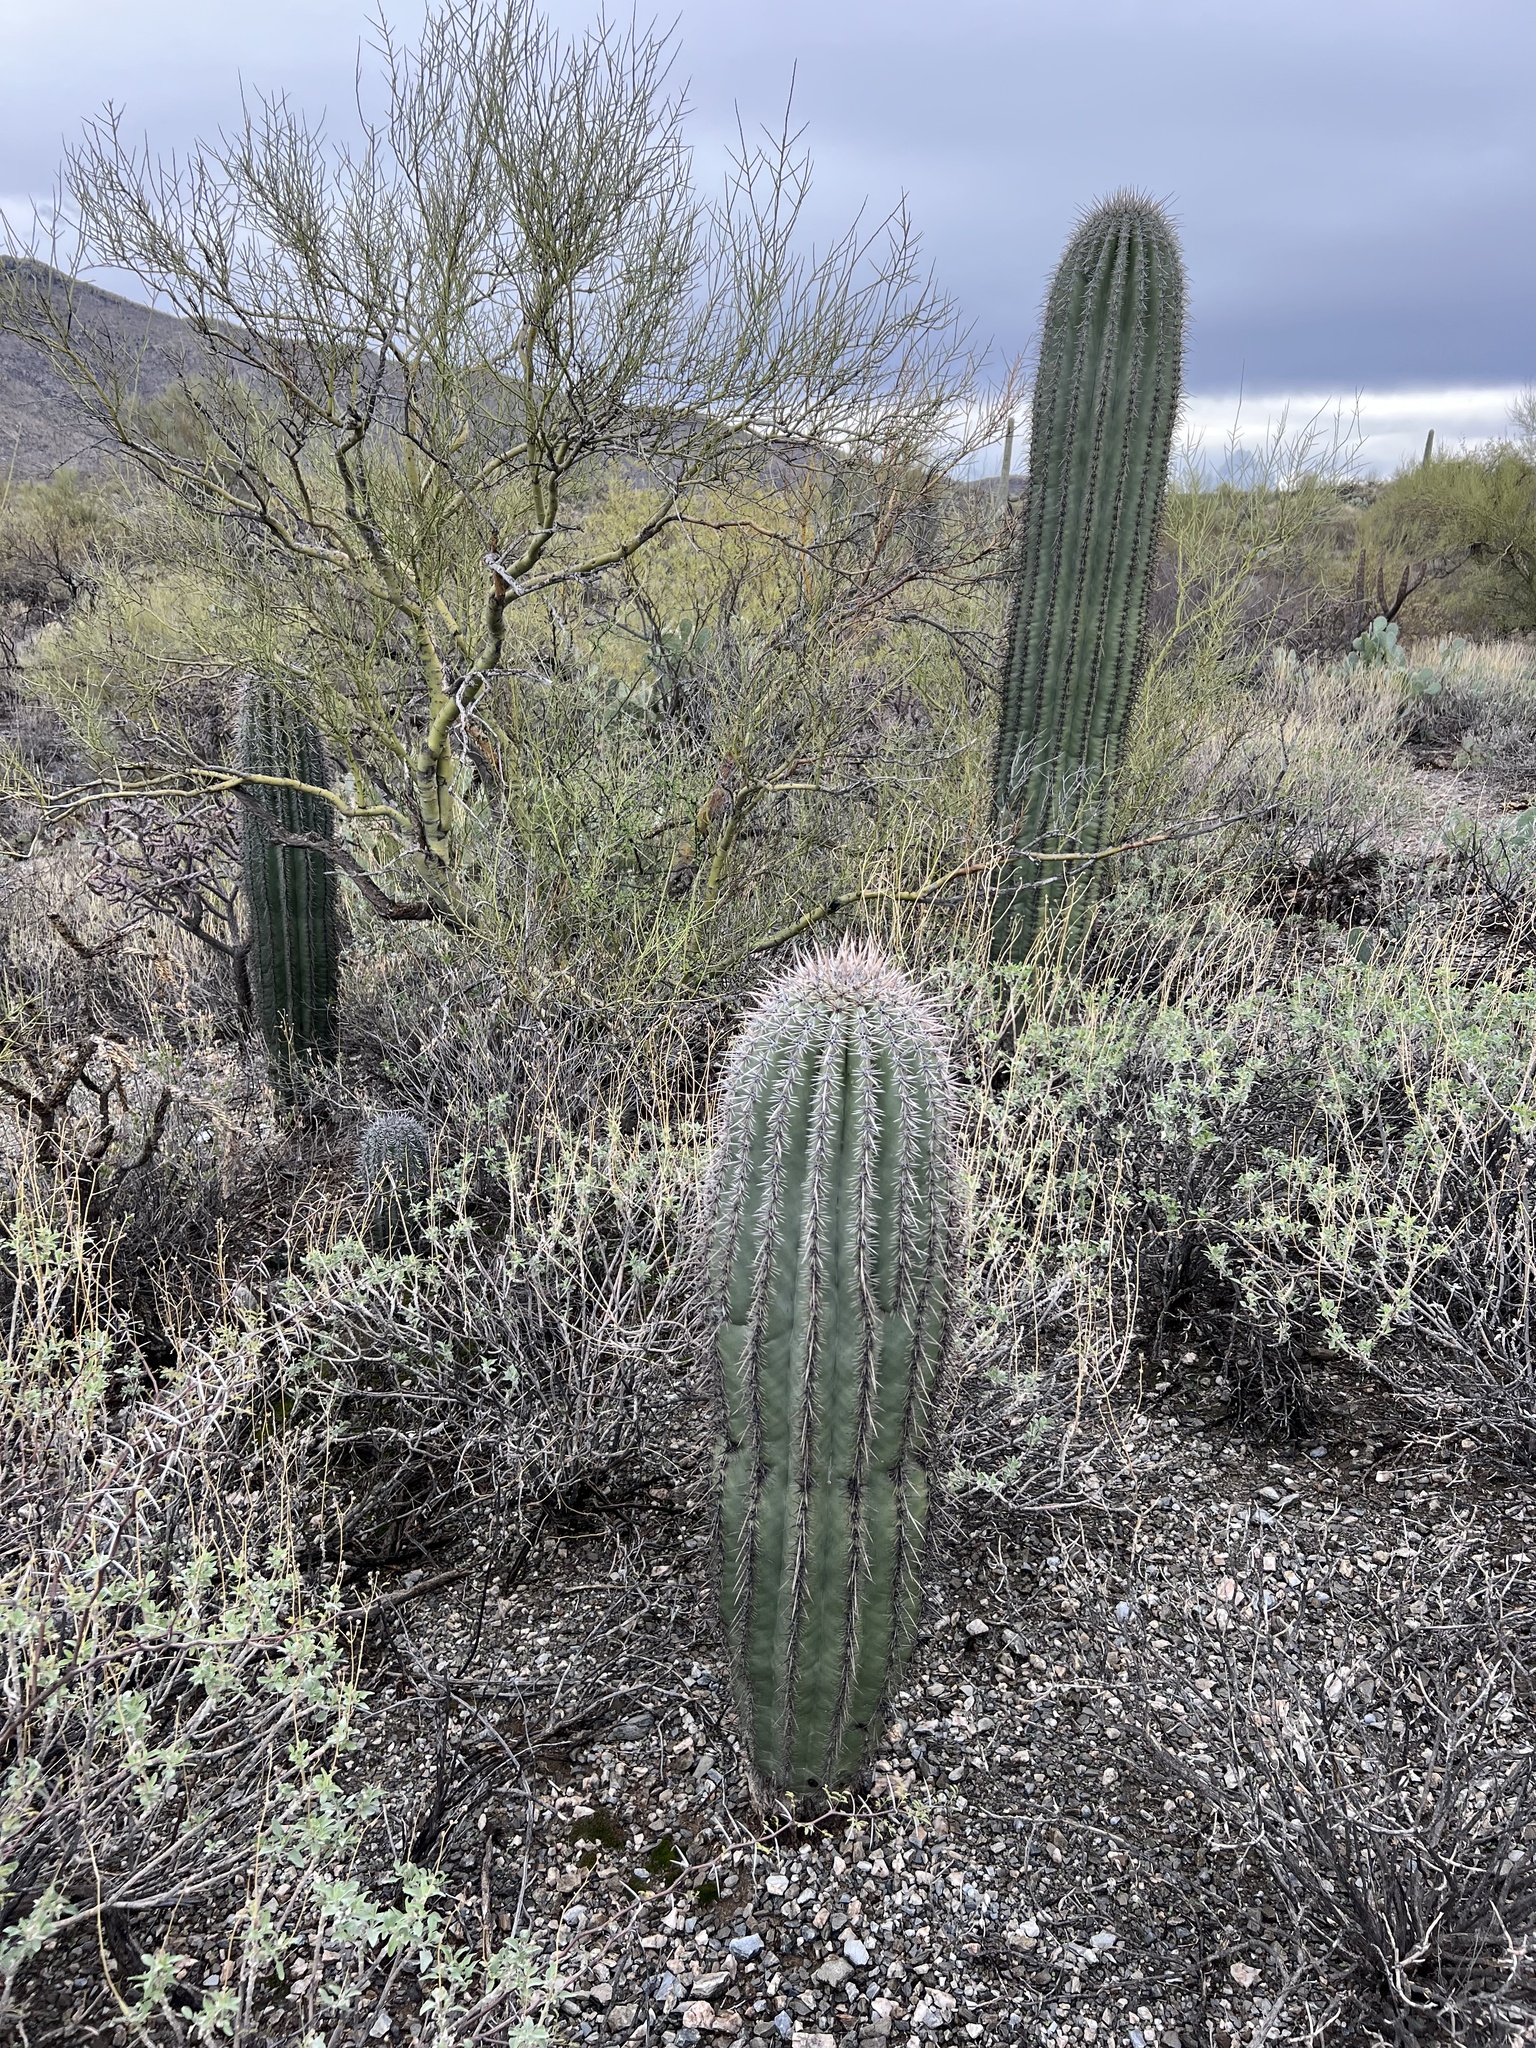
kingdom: Plantae
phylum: Tracheophyta
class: Magnoliopsida
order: Caryophyllales
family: Cactaceae
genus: Carnegiea
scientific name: Carnegiea gigantea
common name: Saguaro
